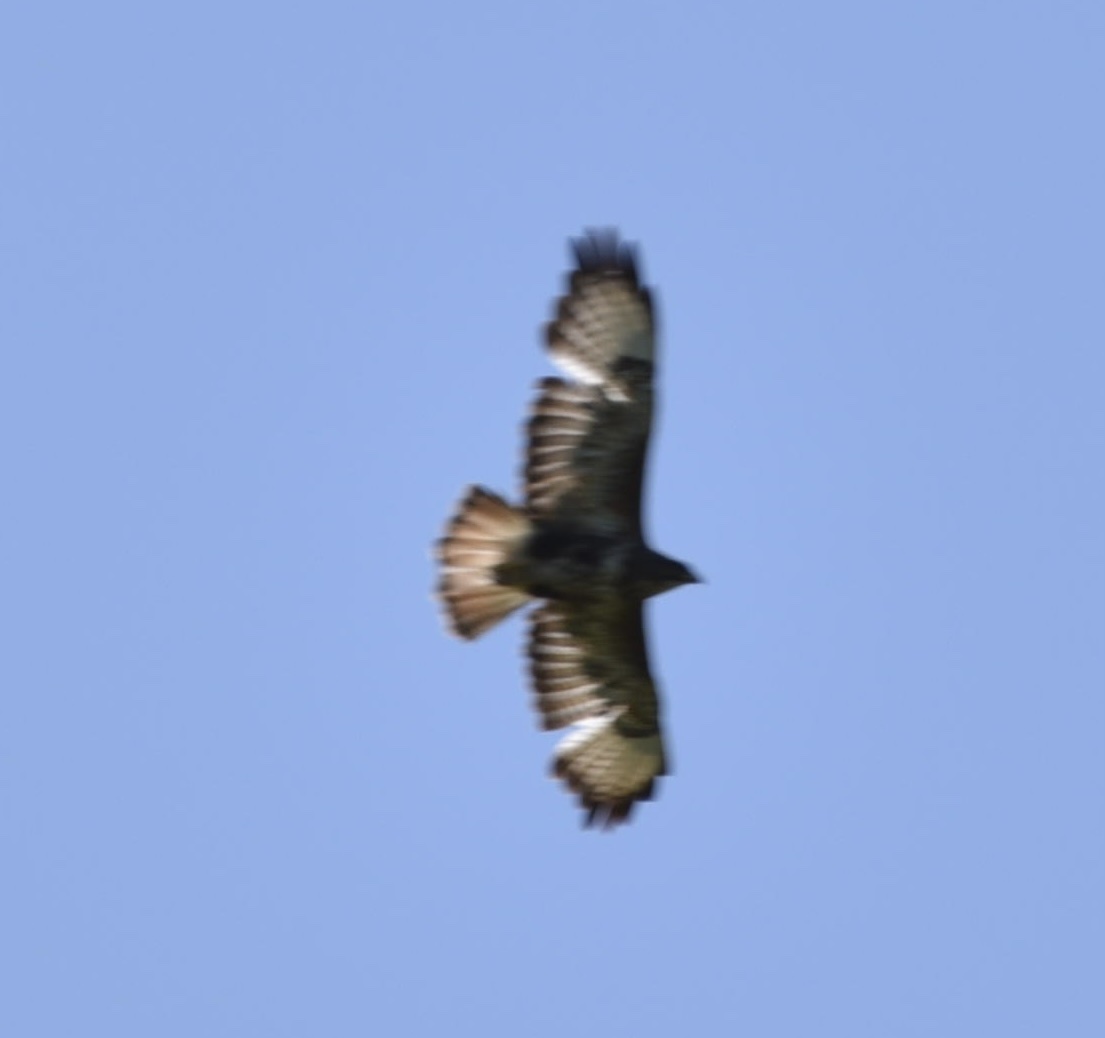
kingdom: Animalia
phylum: Chordata
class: Aves
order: Accipitriformes
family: Accipitridae
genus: Buteo
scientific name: Buteo buteo
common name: Common buzzard
